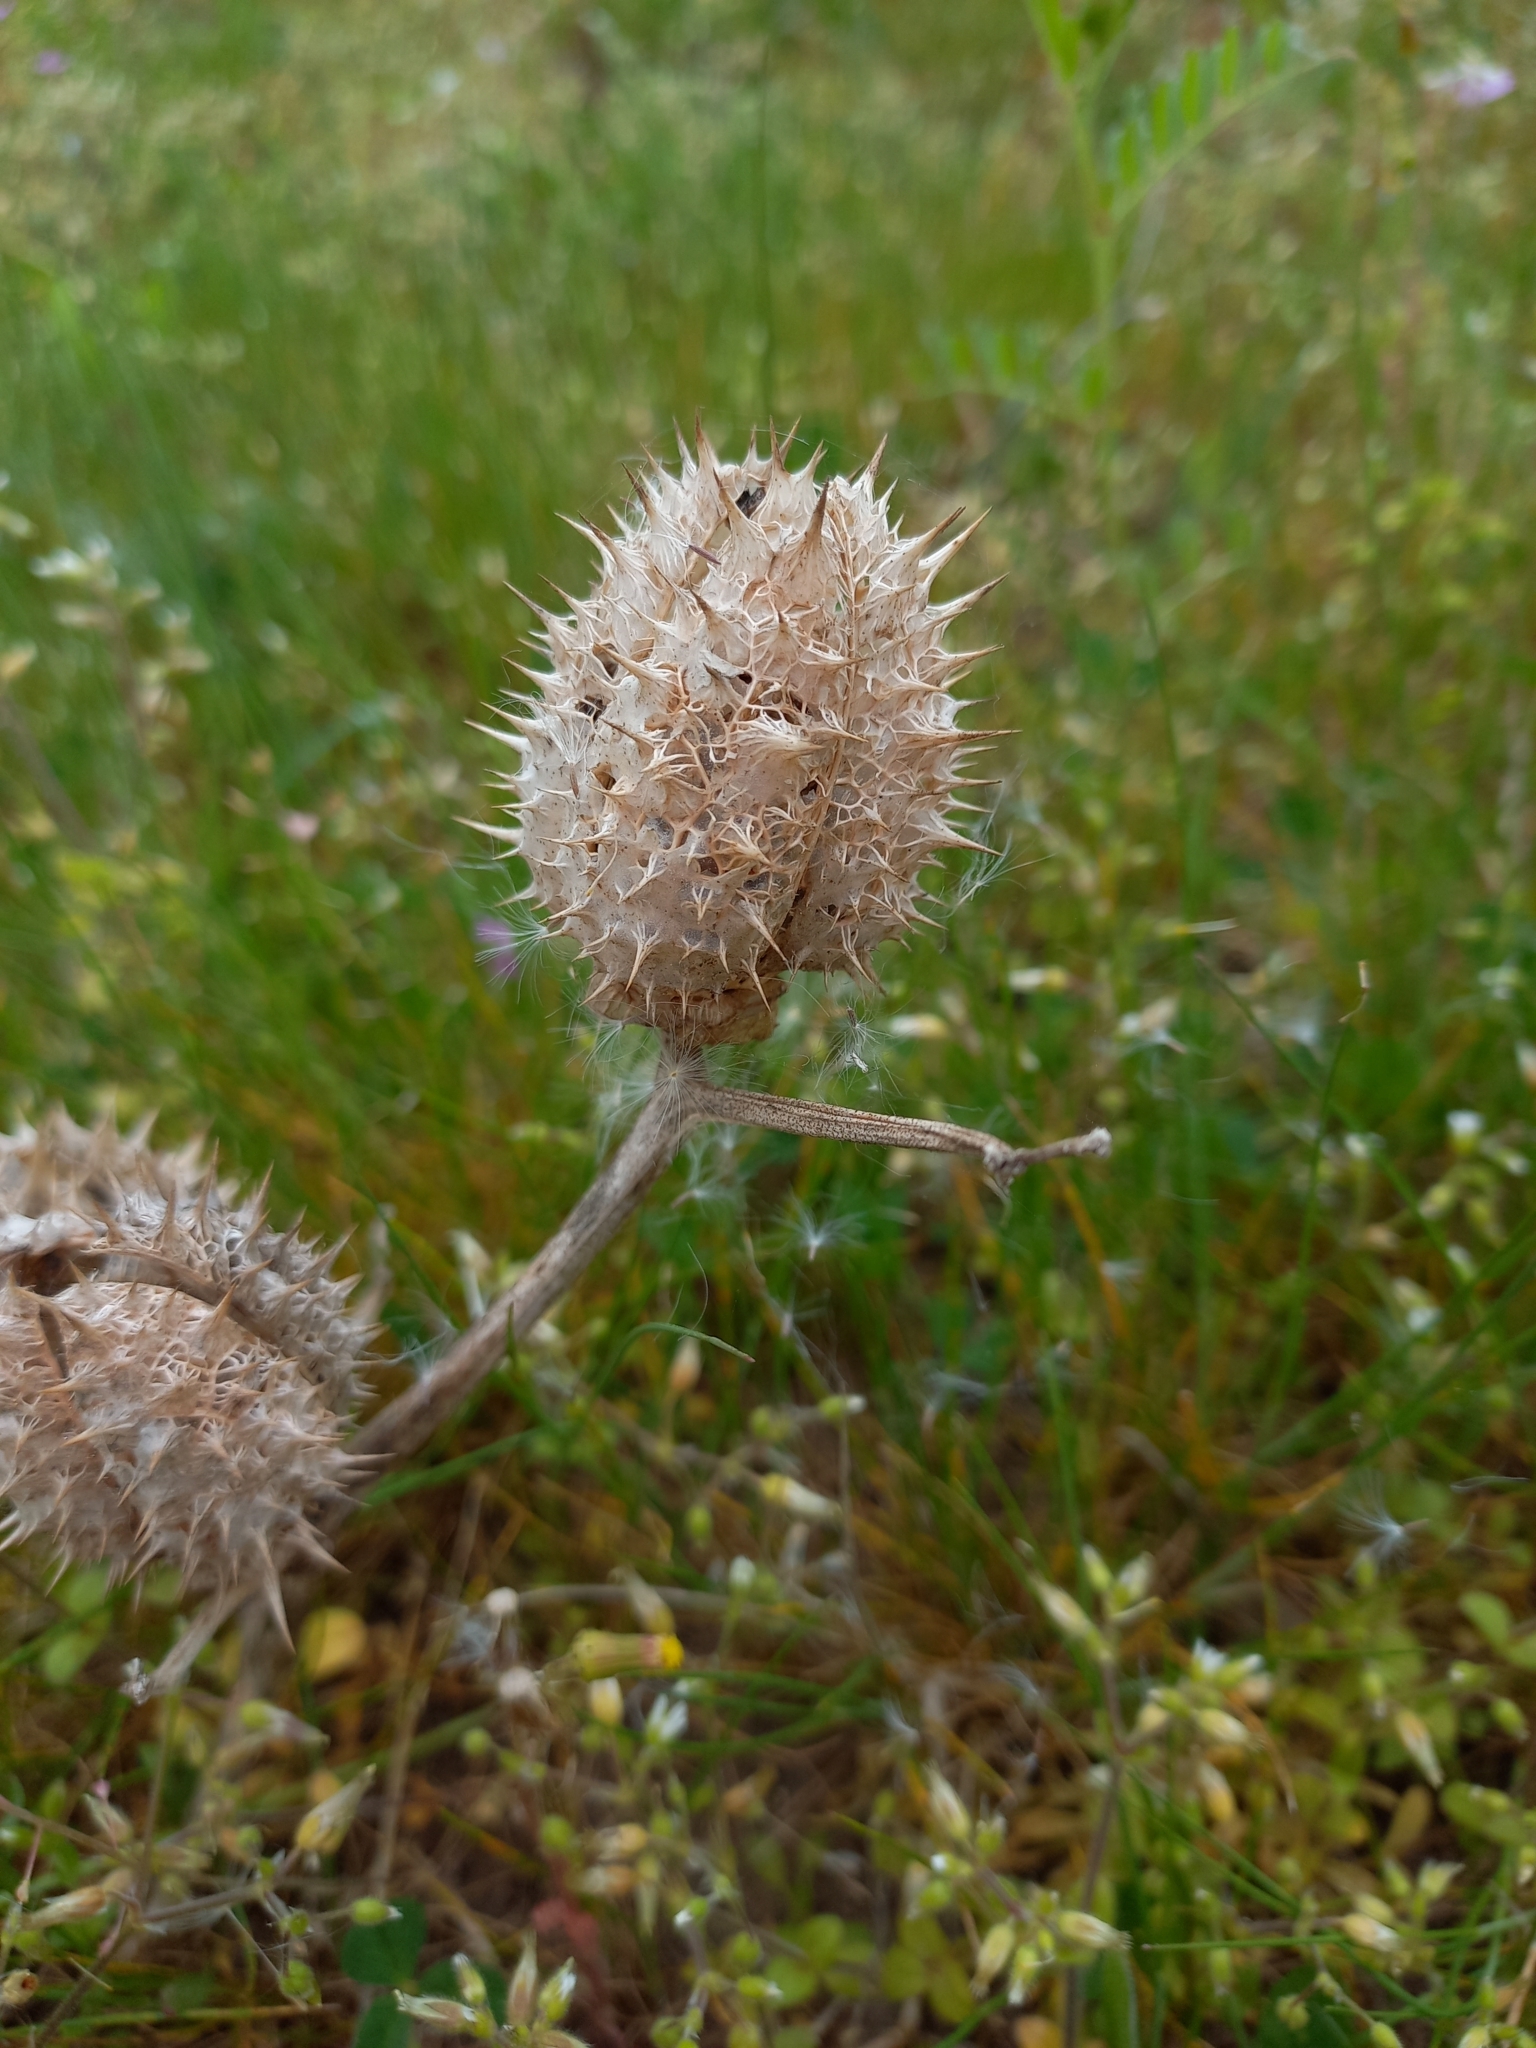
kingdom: Plantae
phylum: Tracheophyta
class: Magnoliopsida
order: Solanales
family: Solanaceae
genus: Datura
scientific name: Datura stramonium
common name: Thorn-apple
